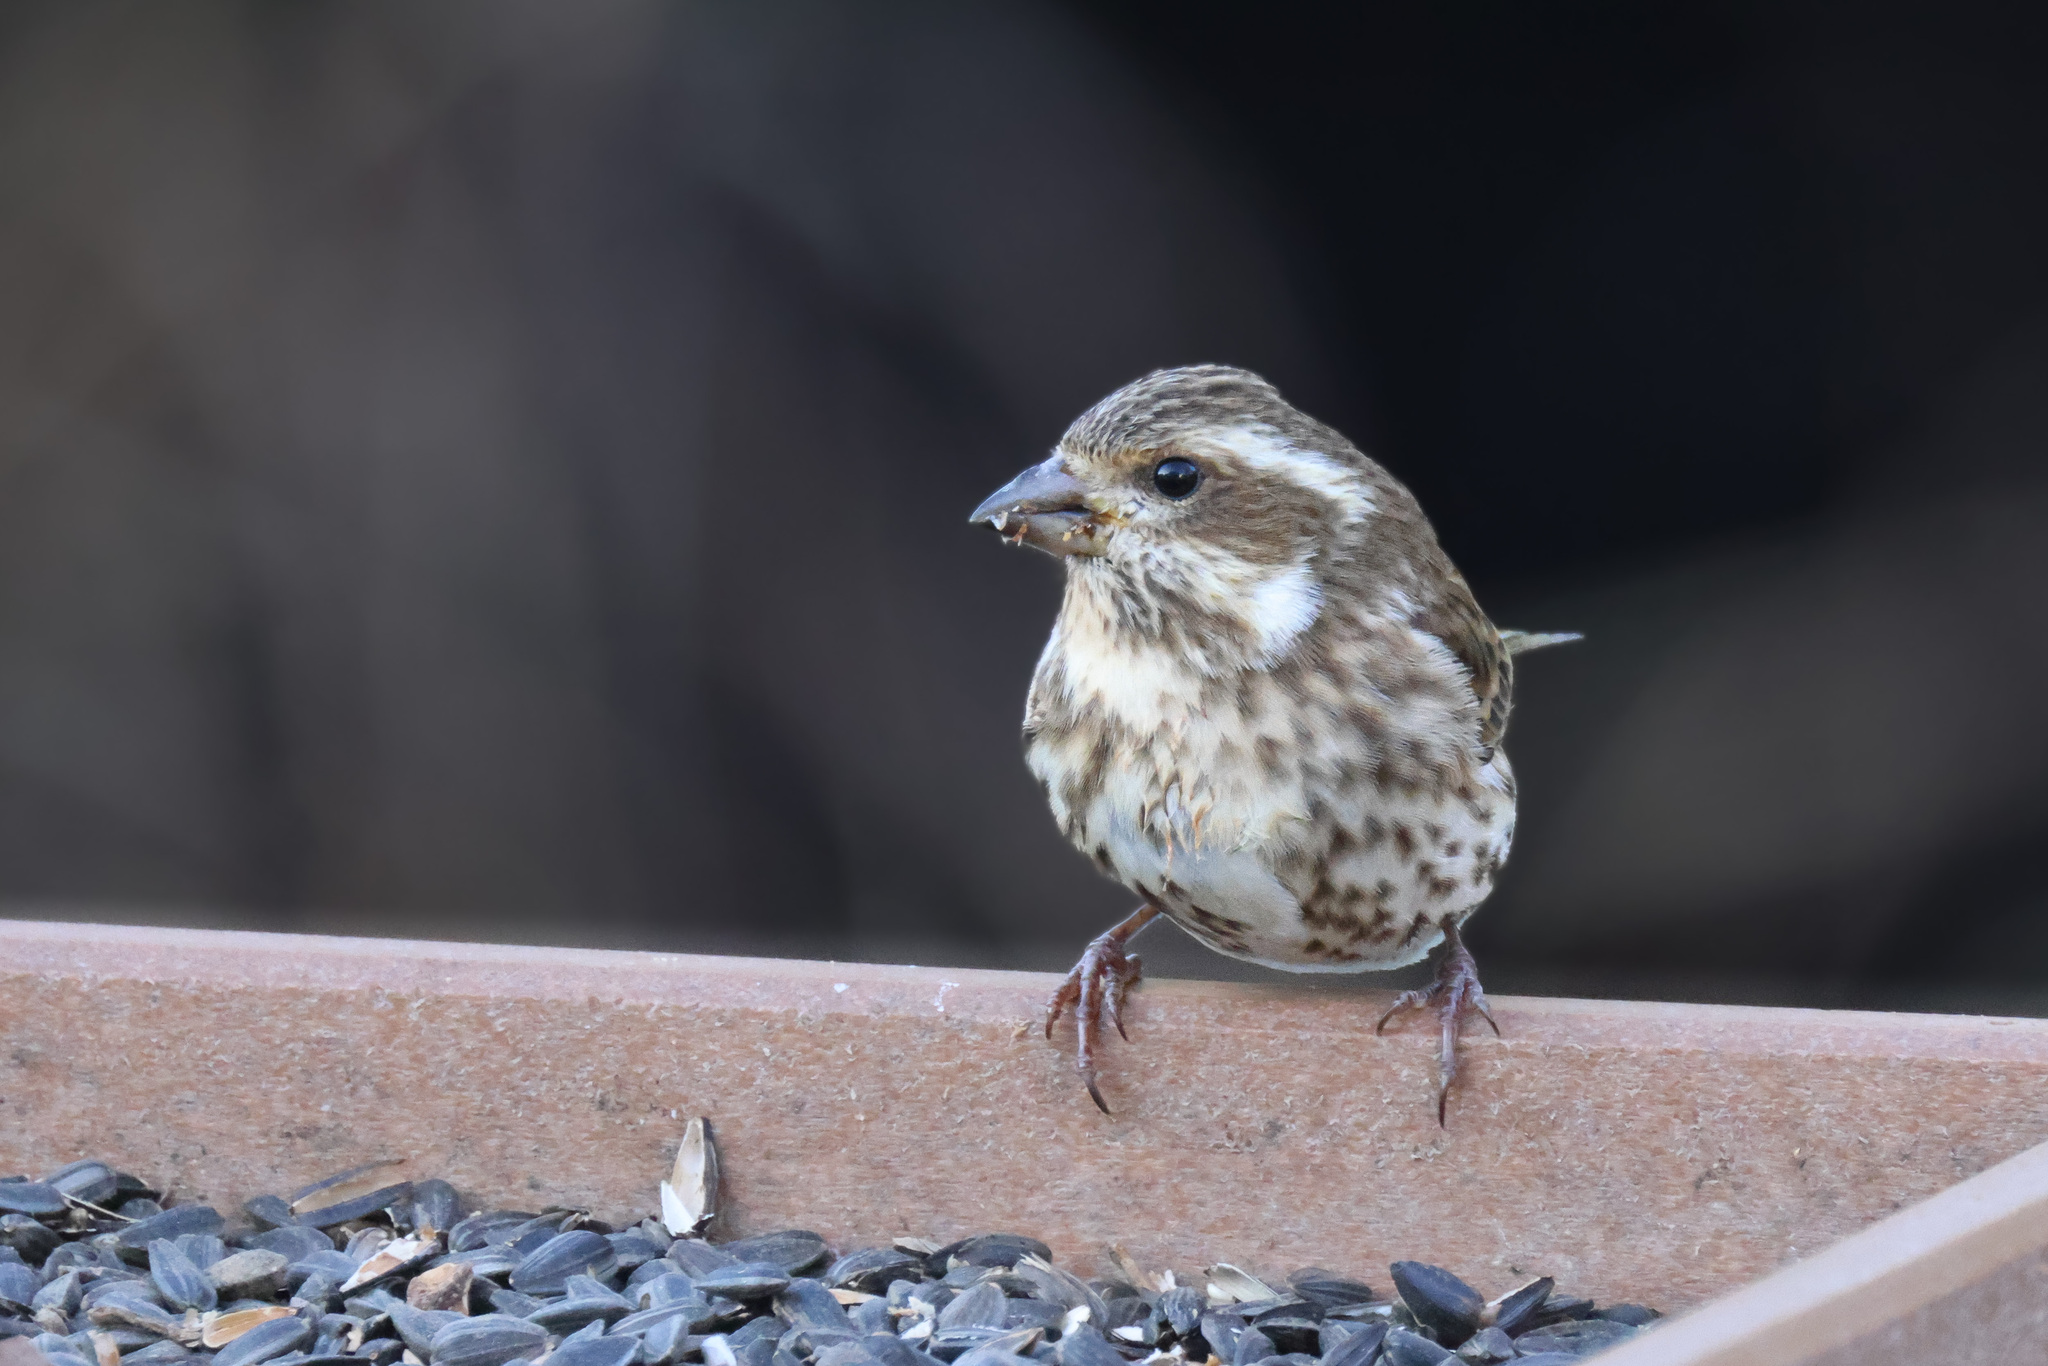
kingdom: Animalia
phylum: Chordata
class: Aves
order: Passeriformes
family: Fringillidae
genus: Haemorhous
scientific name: Haemorhous purpureus
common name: Purple finch
